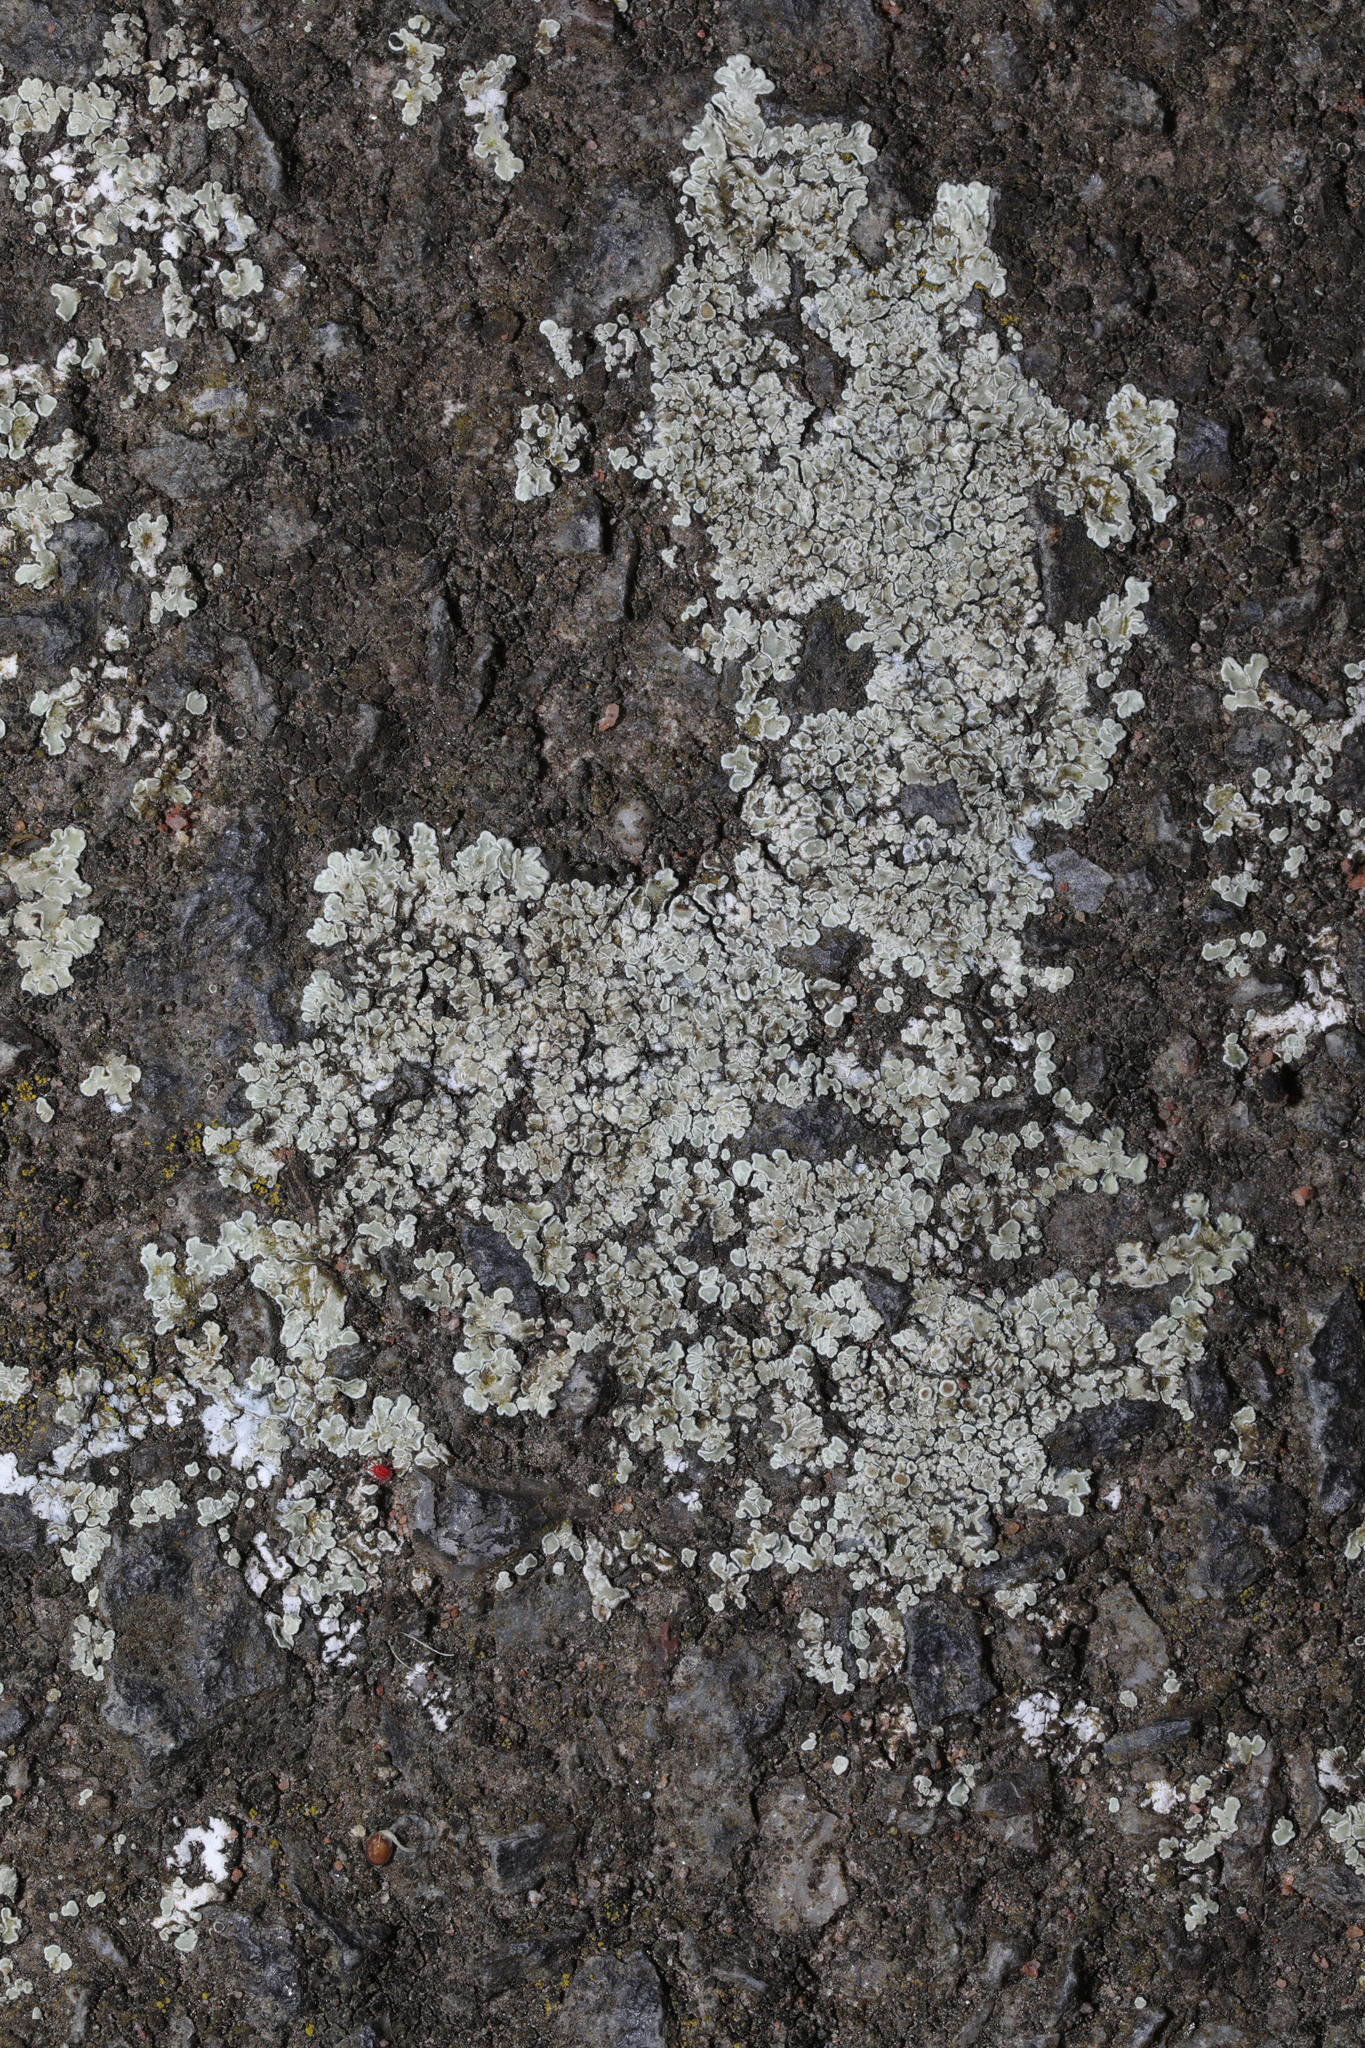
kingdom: Fungi
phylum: Ascomycota
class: Lecanoromycetes
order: Lecanorales
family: Lecanoraceae
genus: Protoparmeliopsis
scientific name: Protoparmeliopsis muralis
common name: Stonewall rim lichen
